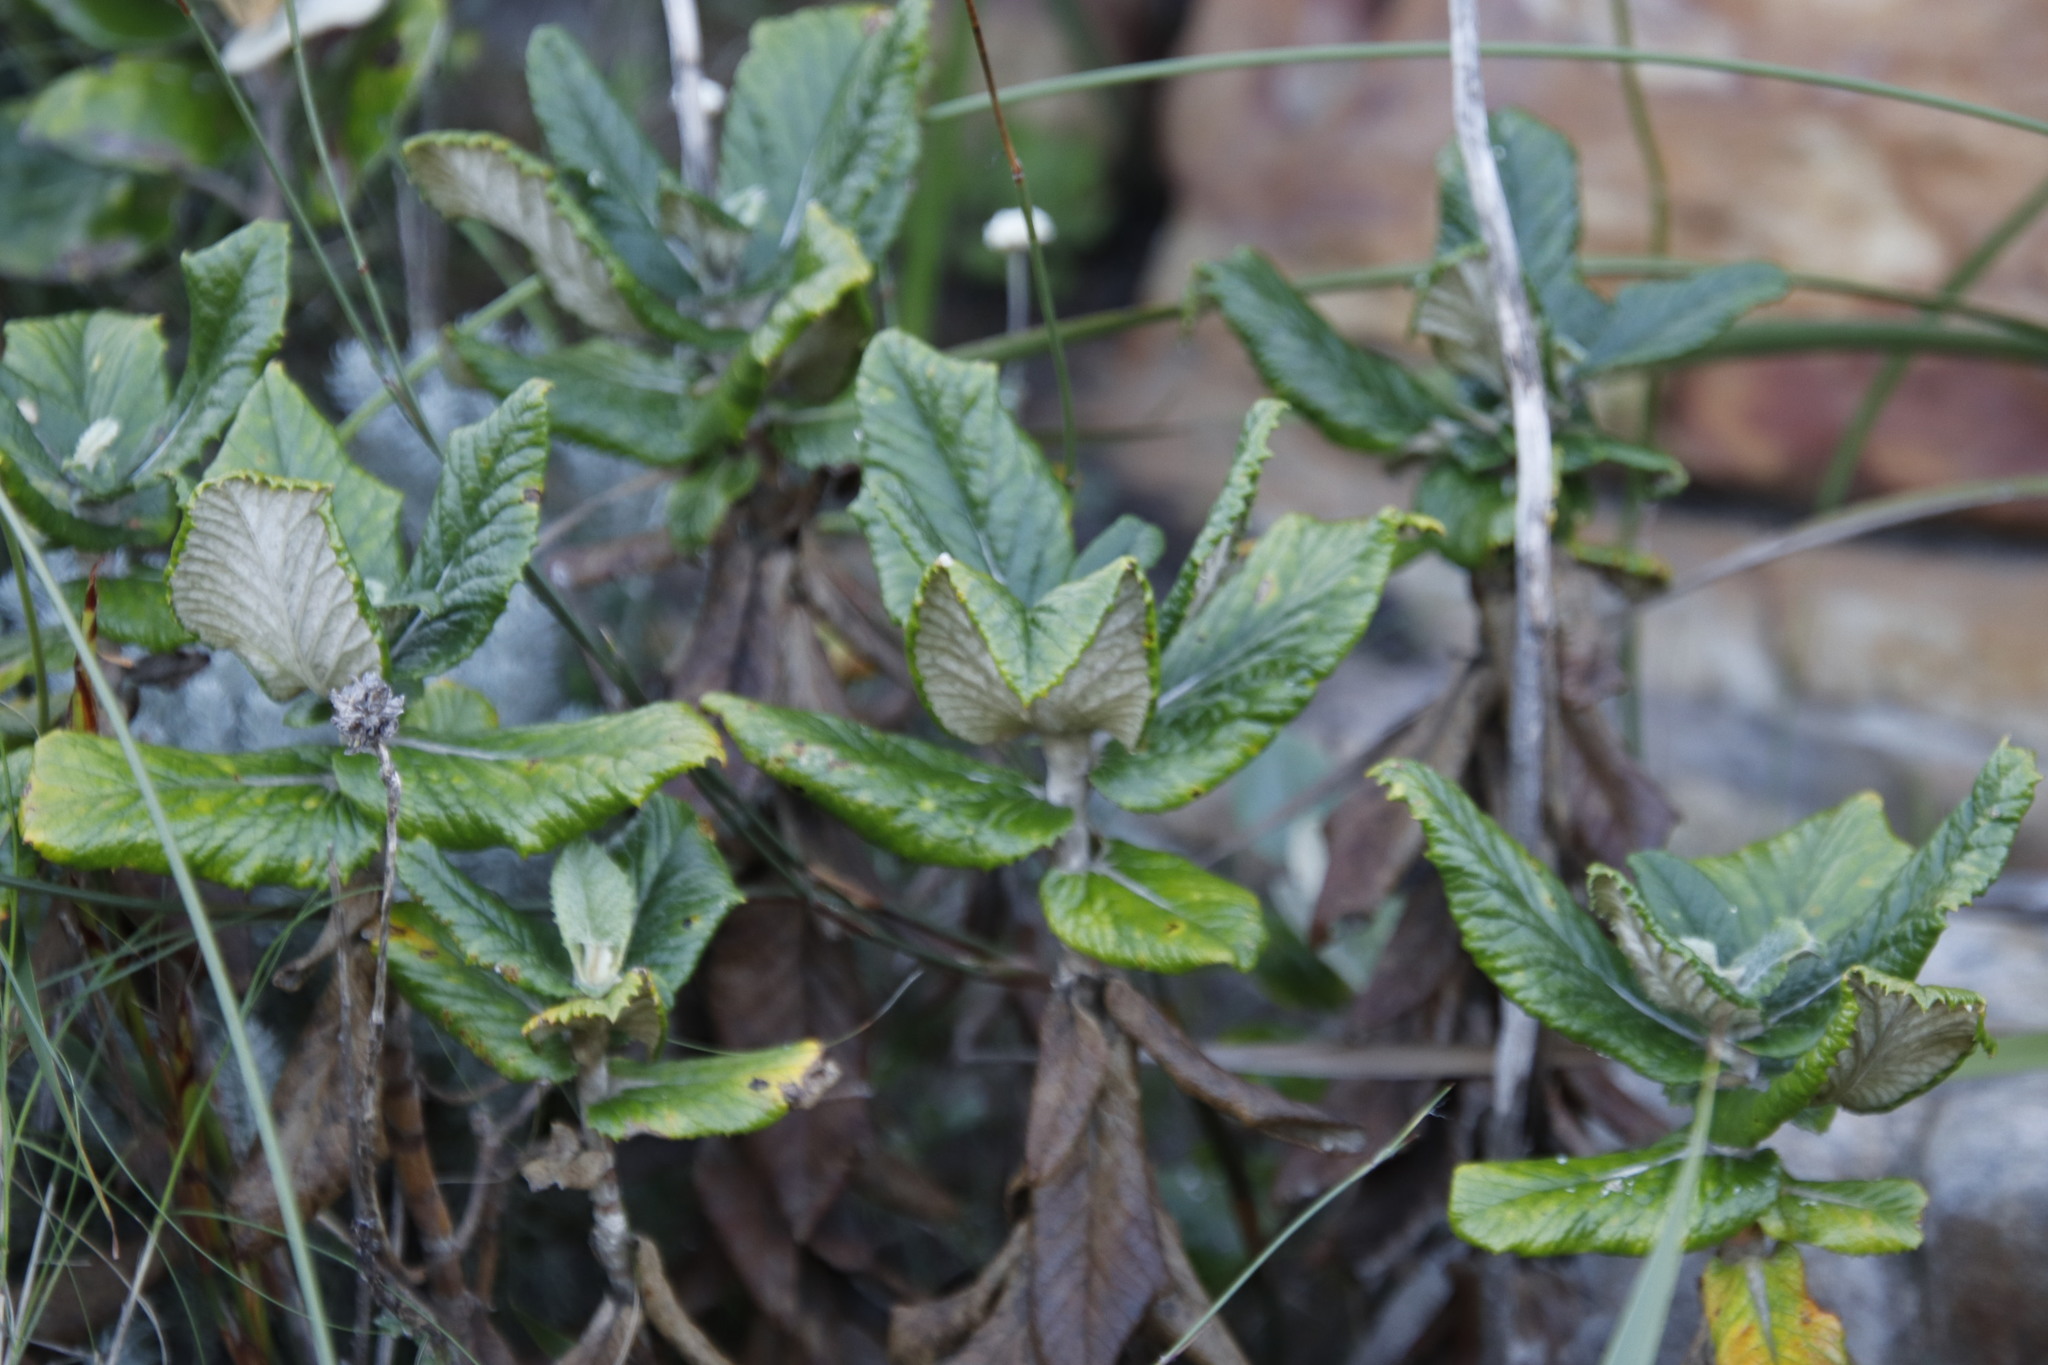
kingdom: Plantae
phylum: Tracheophyta
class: Magnoliopsida
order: Apiales
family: Apiaceae
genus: Hermas
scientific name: Hermas villosa
